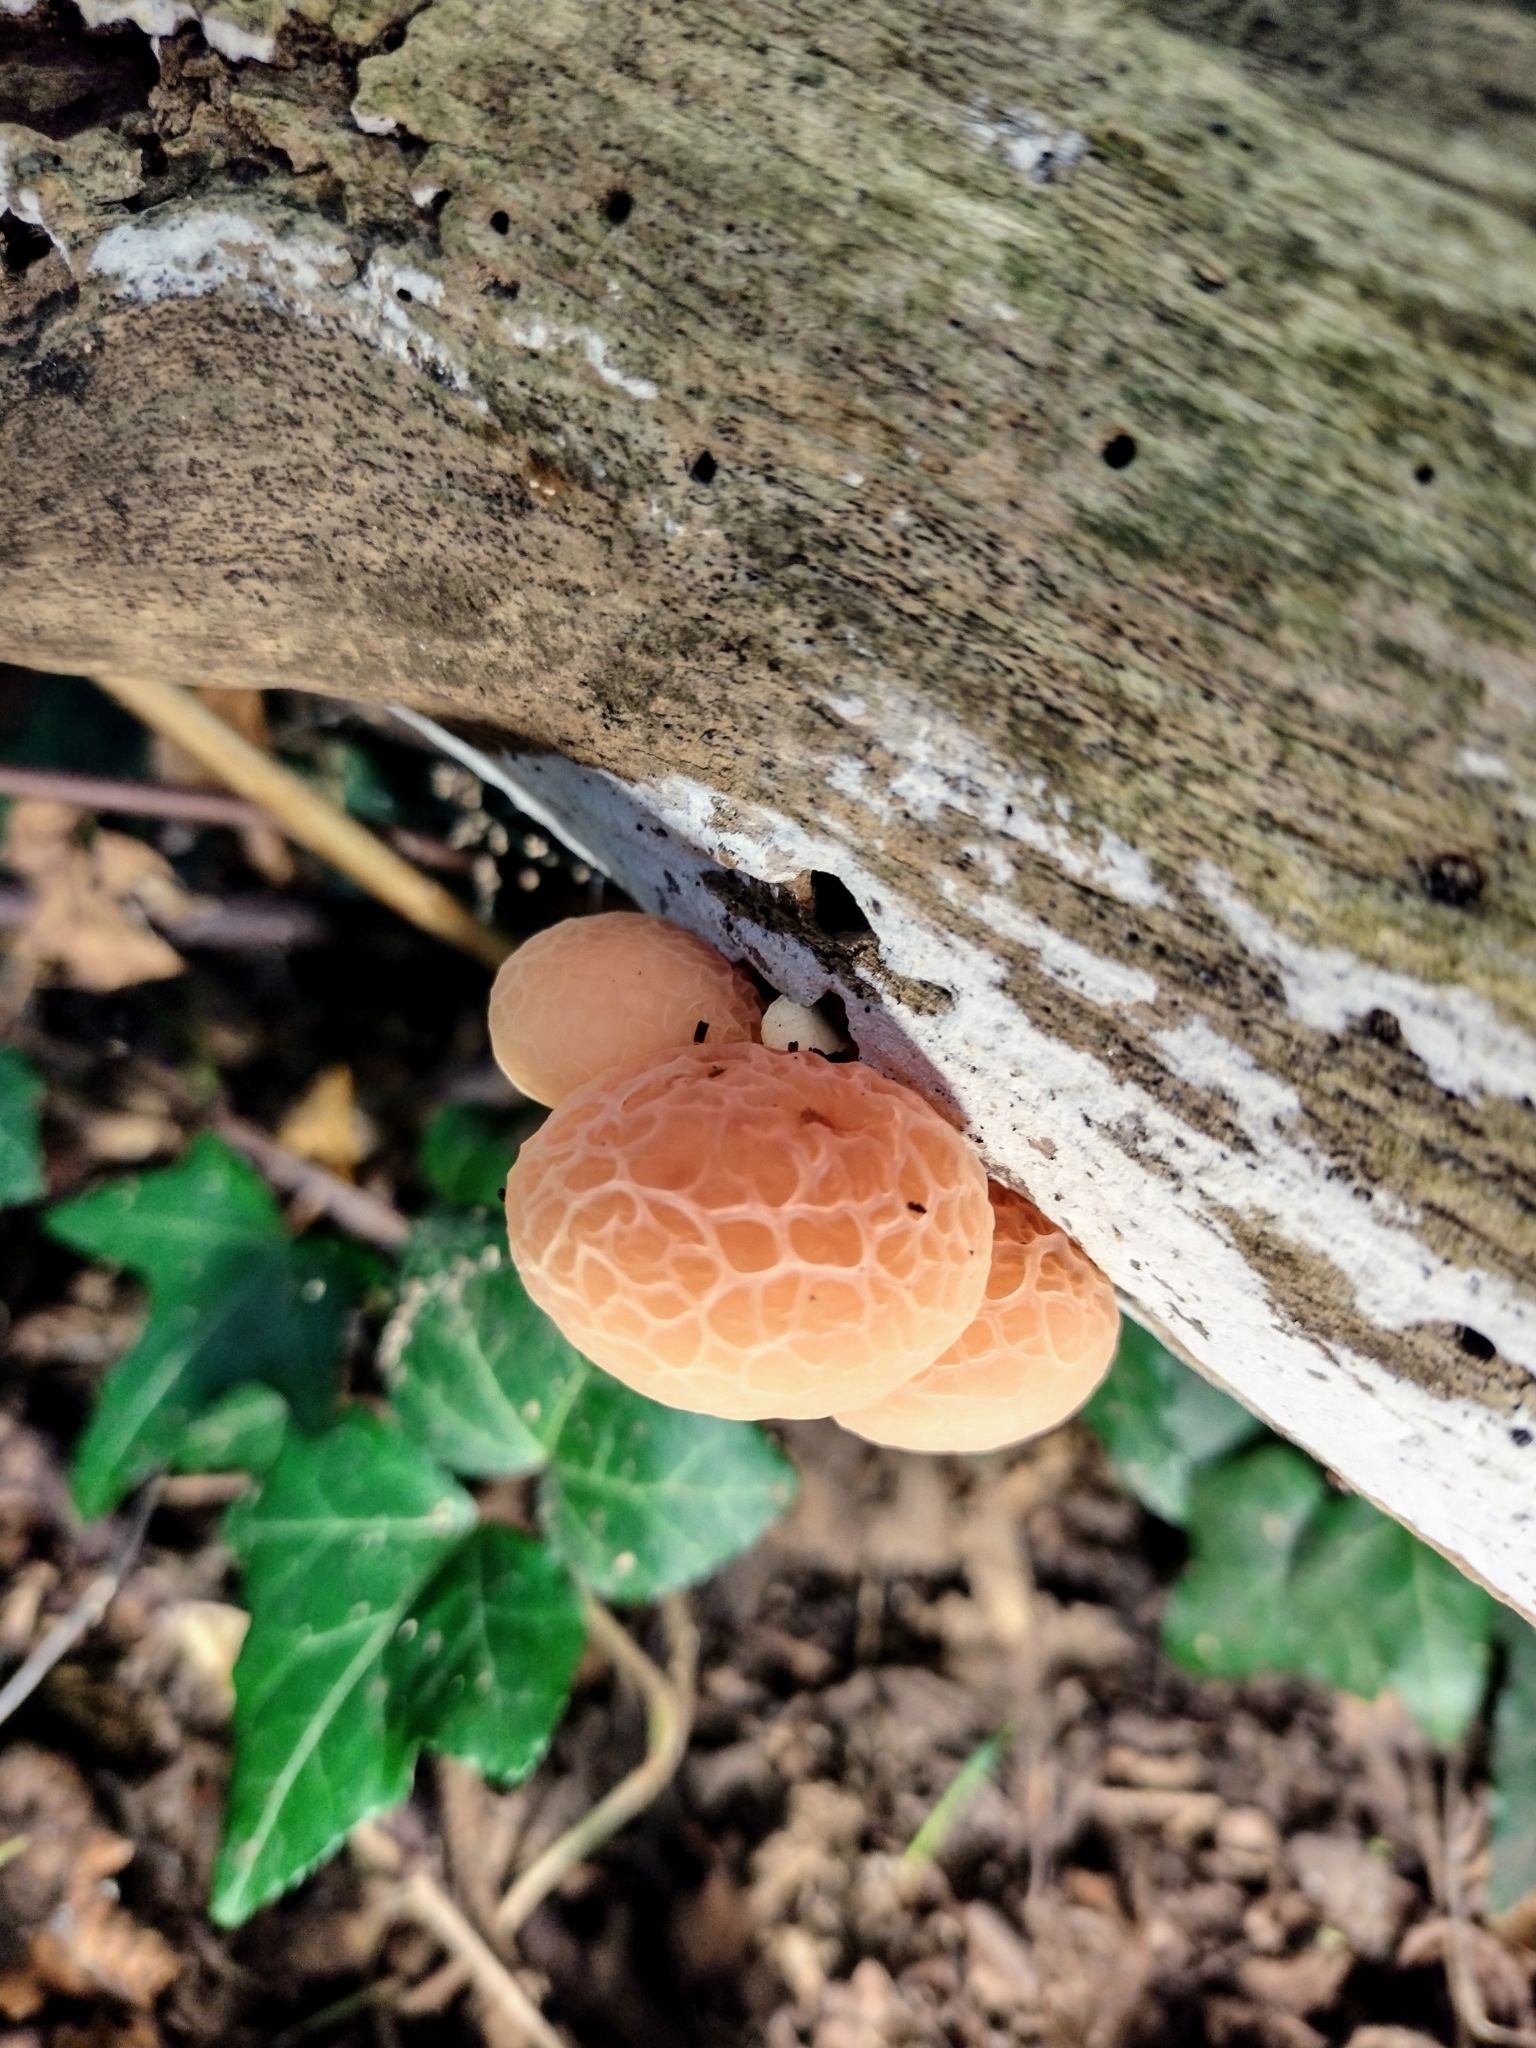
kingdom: Fungi
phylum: Basidiomycota
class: Agaricomycetes
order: Agaricales
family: Physalacriaceae
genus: Rhodotus
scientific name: Rhodotus palmatus
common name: Wrinkled peach
